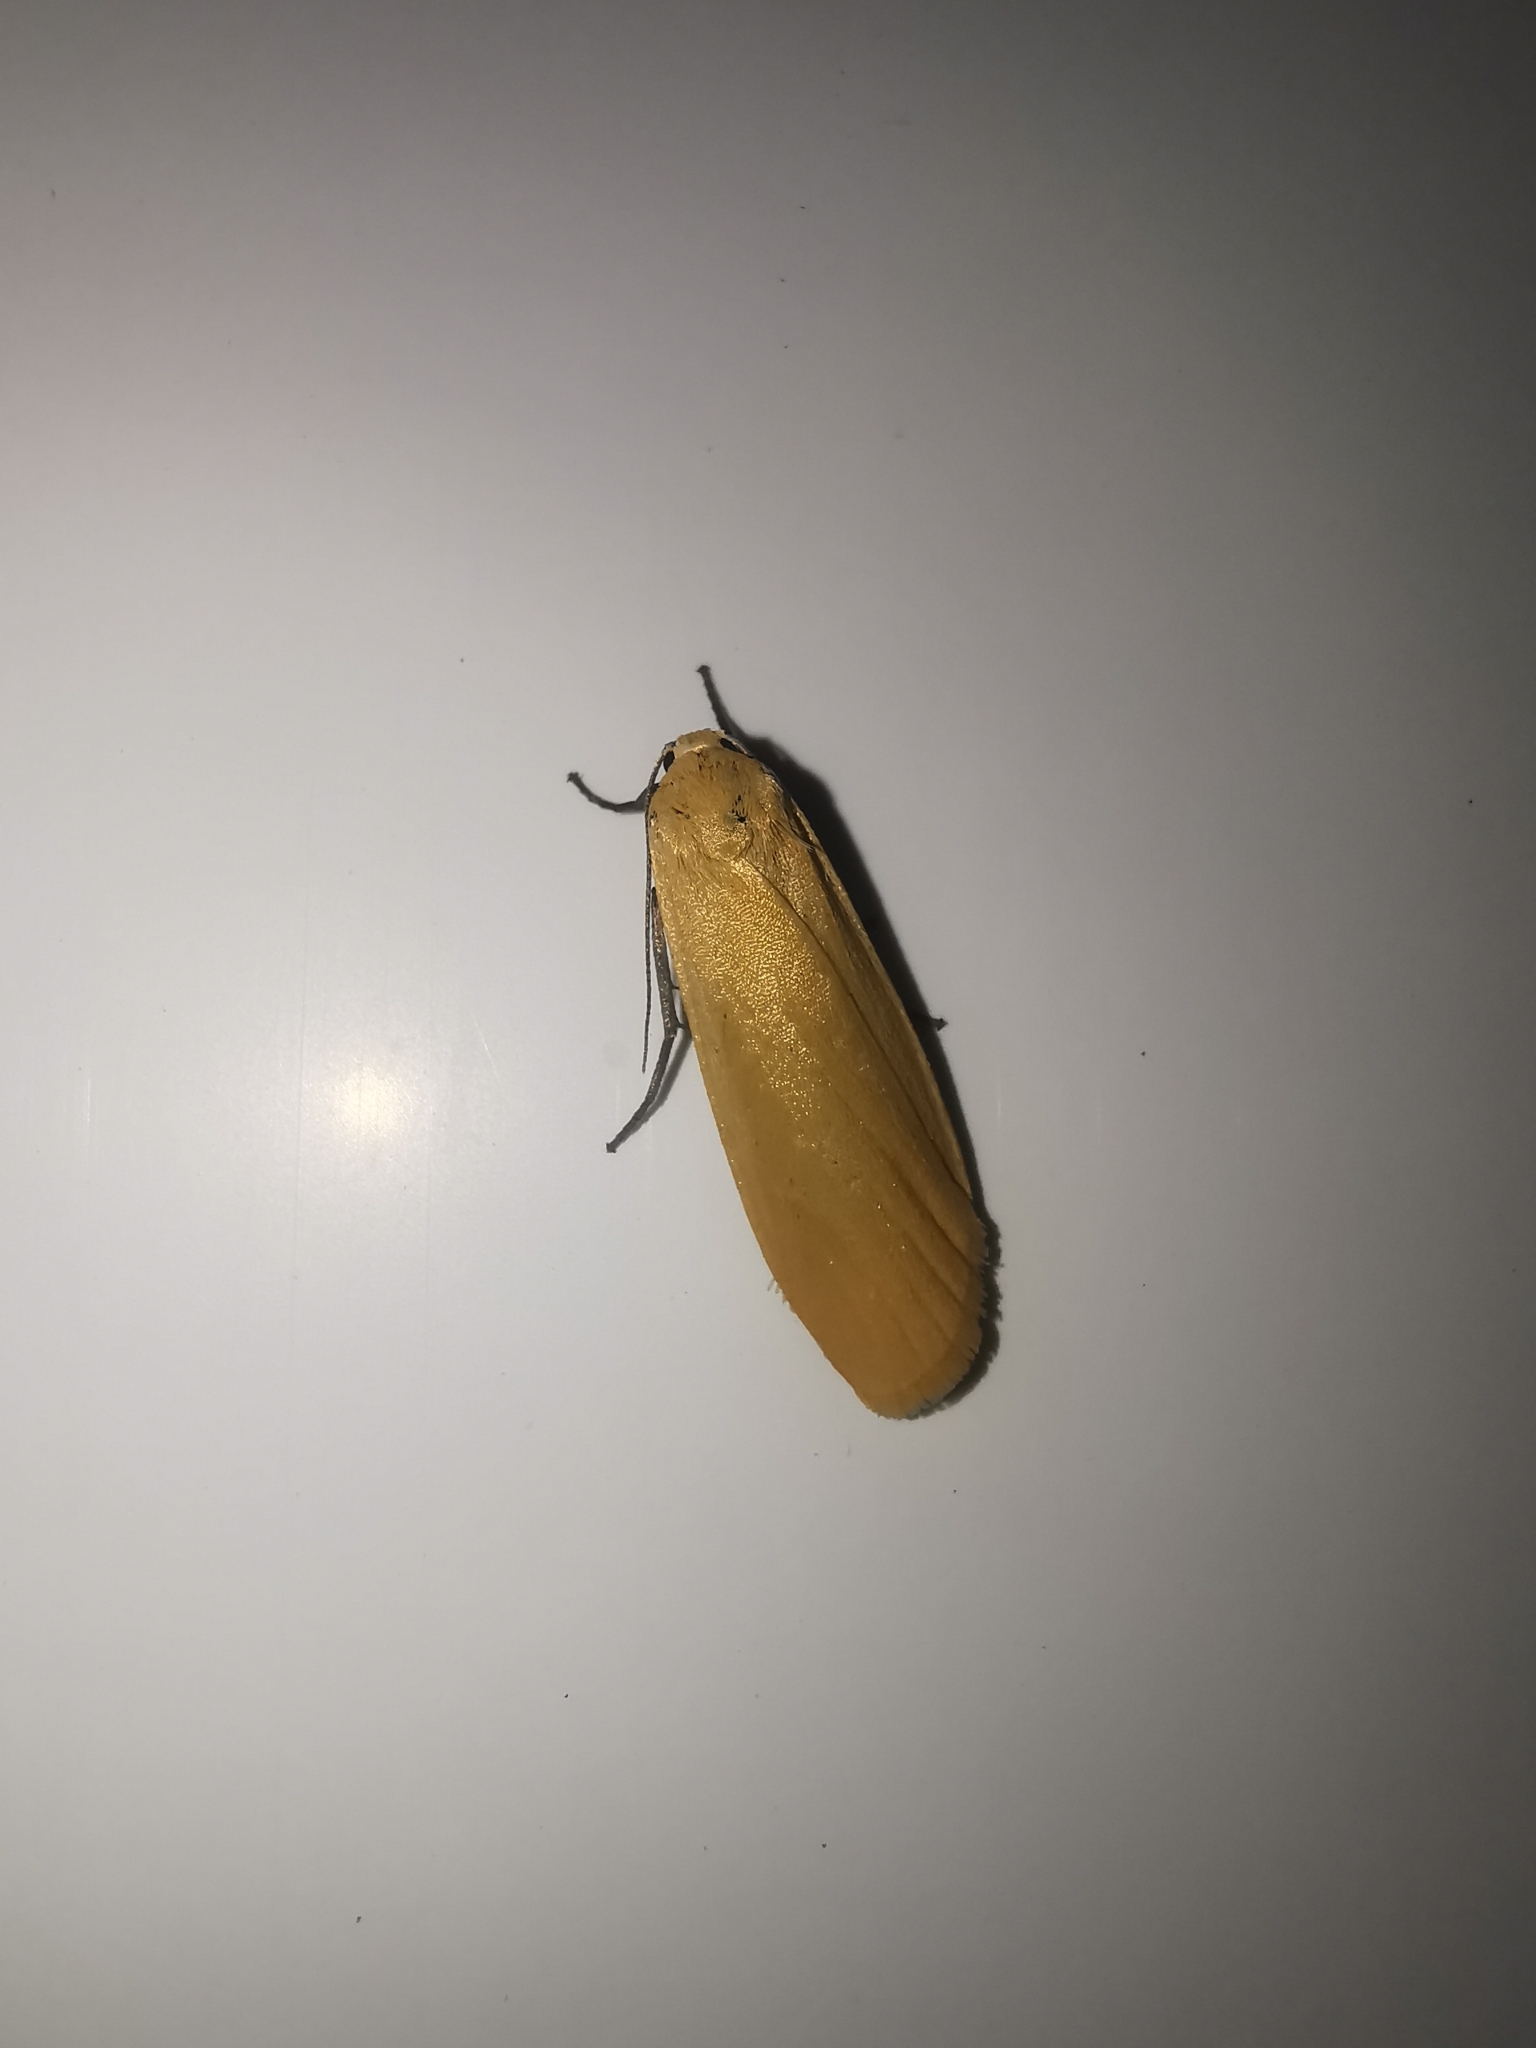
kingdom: Animalia
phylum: Arthropoda
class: Insecta
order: Lepidoptera
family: Erebidae
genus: Wittia
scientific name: Wittia sororcula
